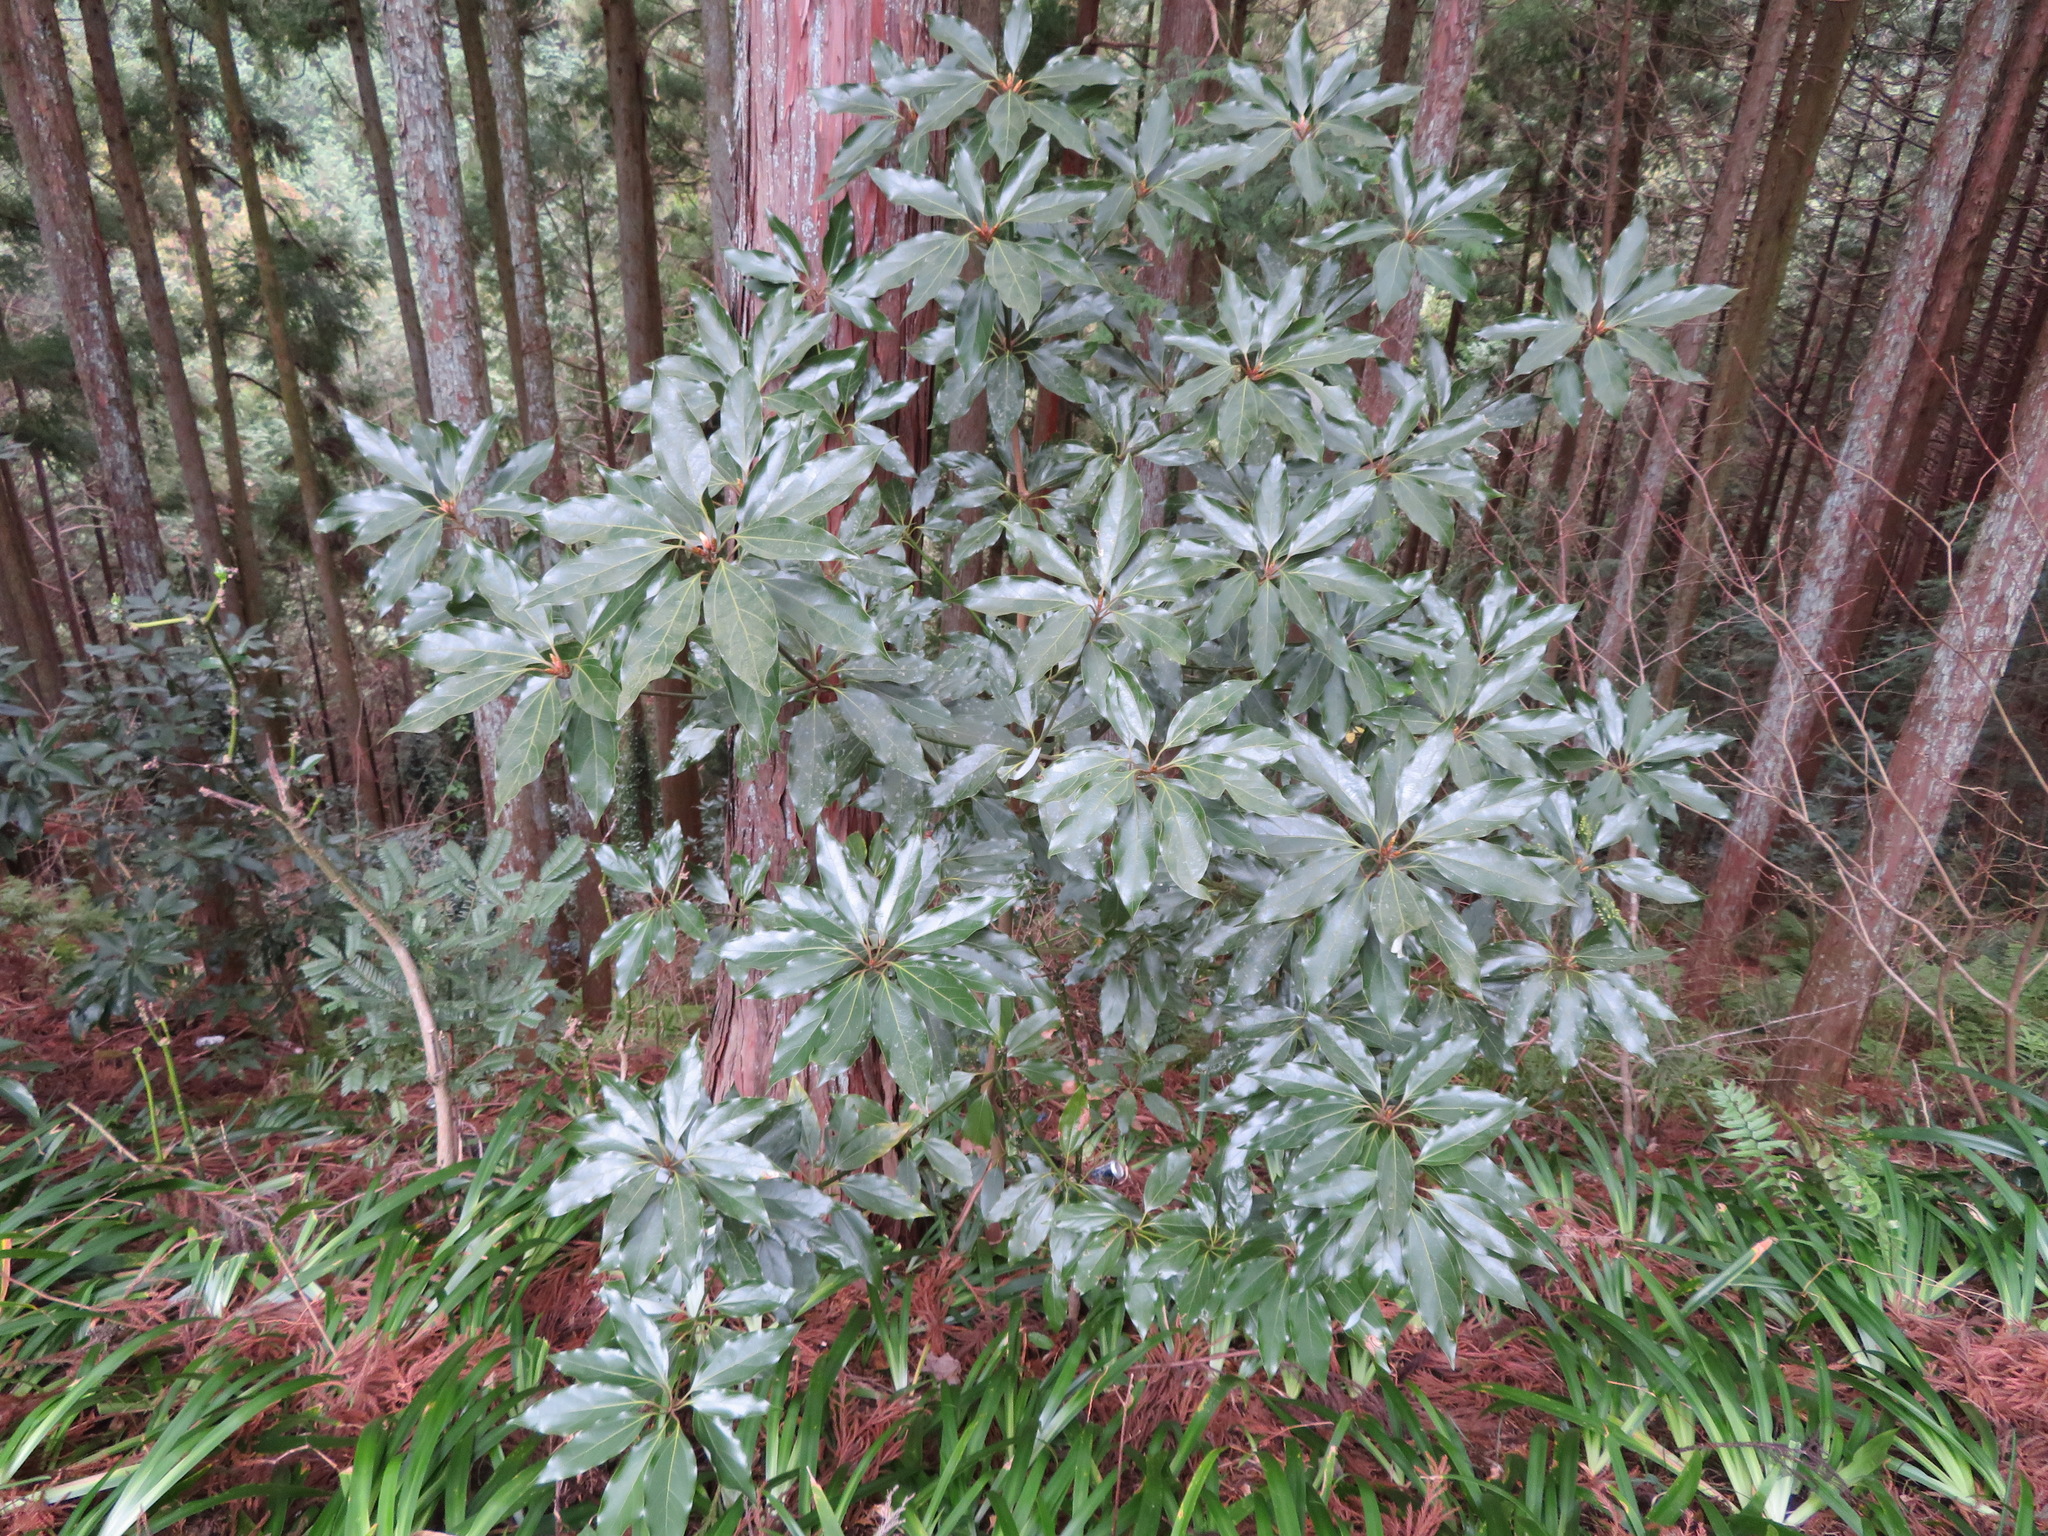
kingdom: Plantae
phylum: Tracheophyta
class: Magnoliopsida
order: Laurales
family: Lauraceae
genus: Neolitsea
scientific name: Neolitsea sericea
